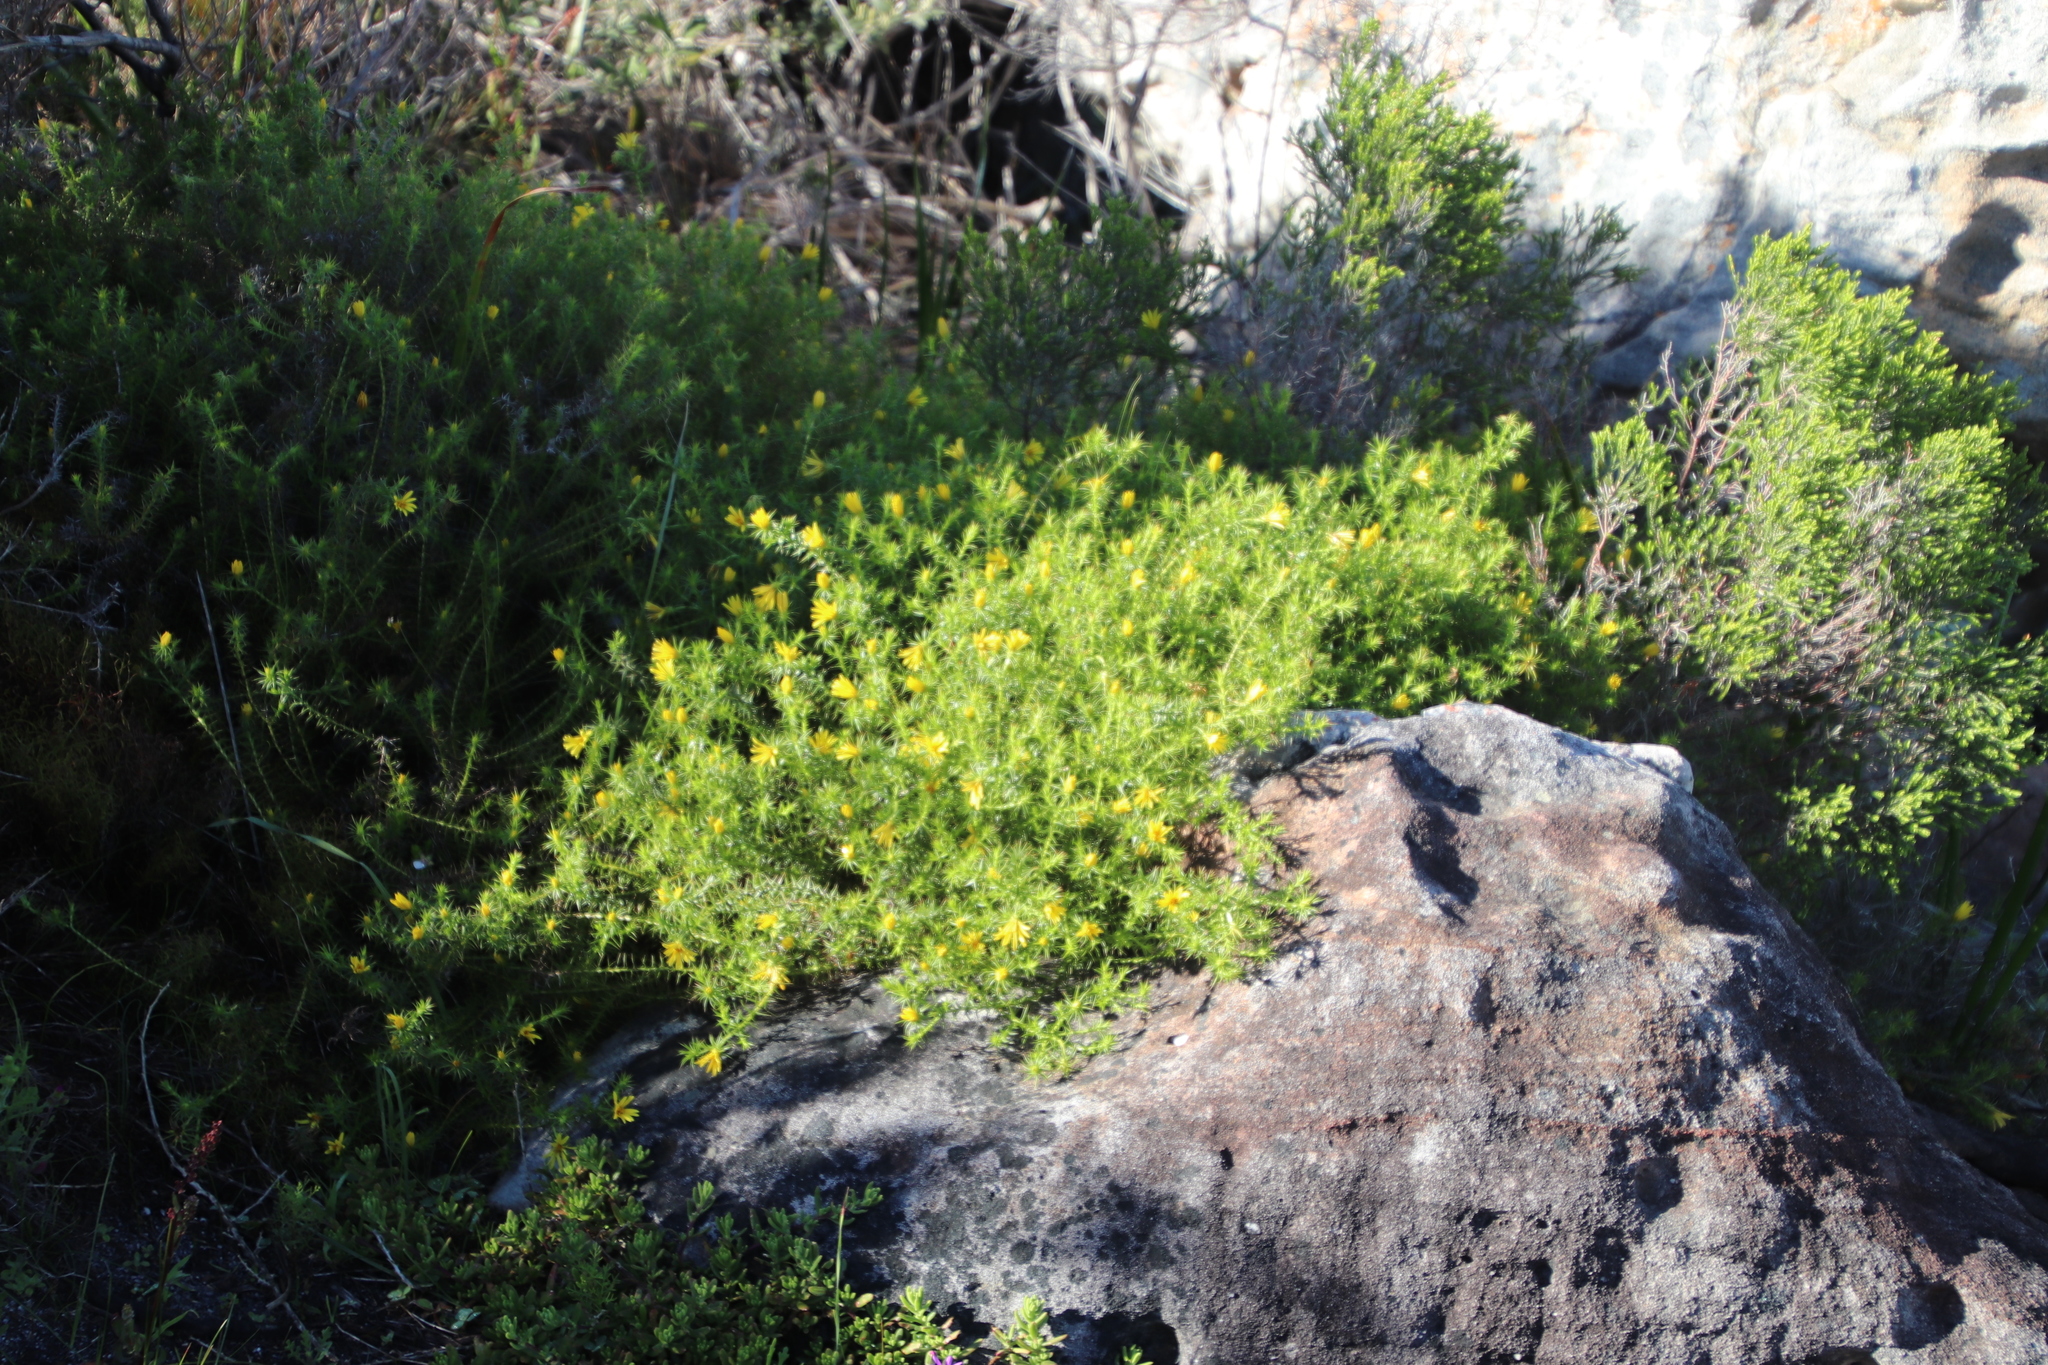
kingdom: Plantae
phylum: Tracheophyta
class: Magnoliopsida
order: Asterales
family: Asteraceae
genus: Cullumia
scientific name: Cullumia setosa
